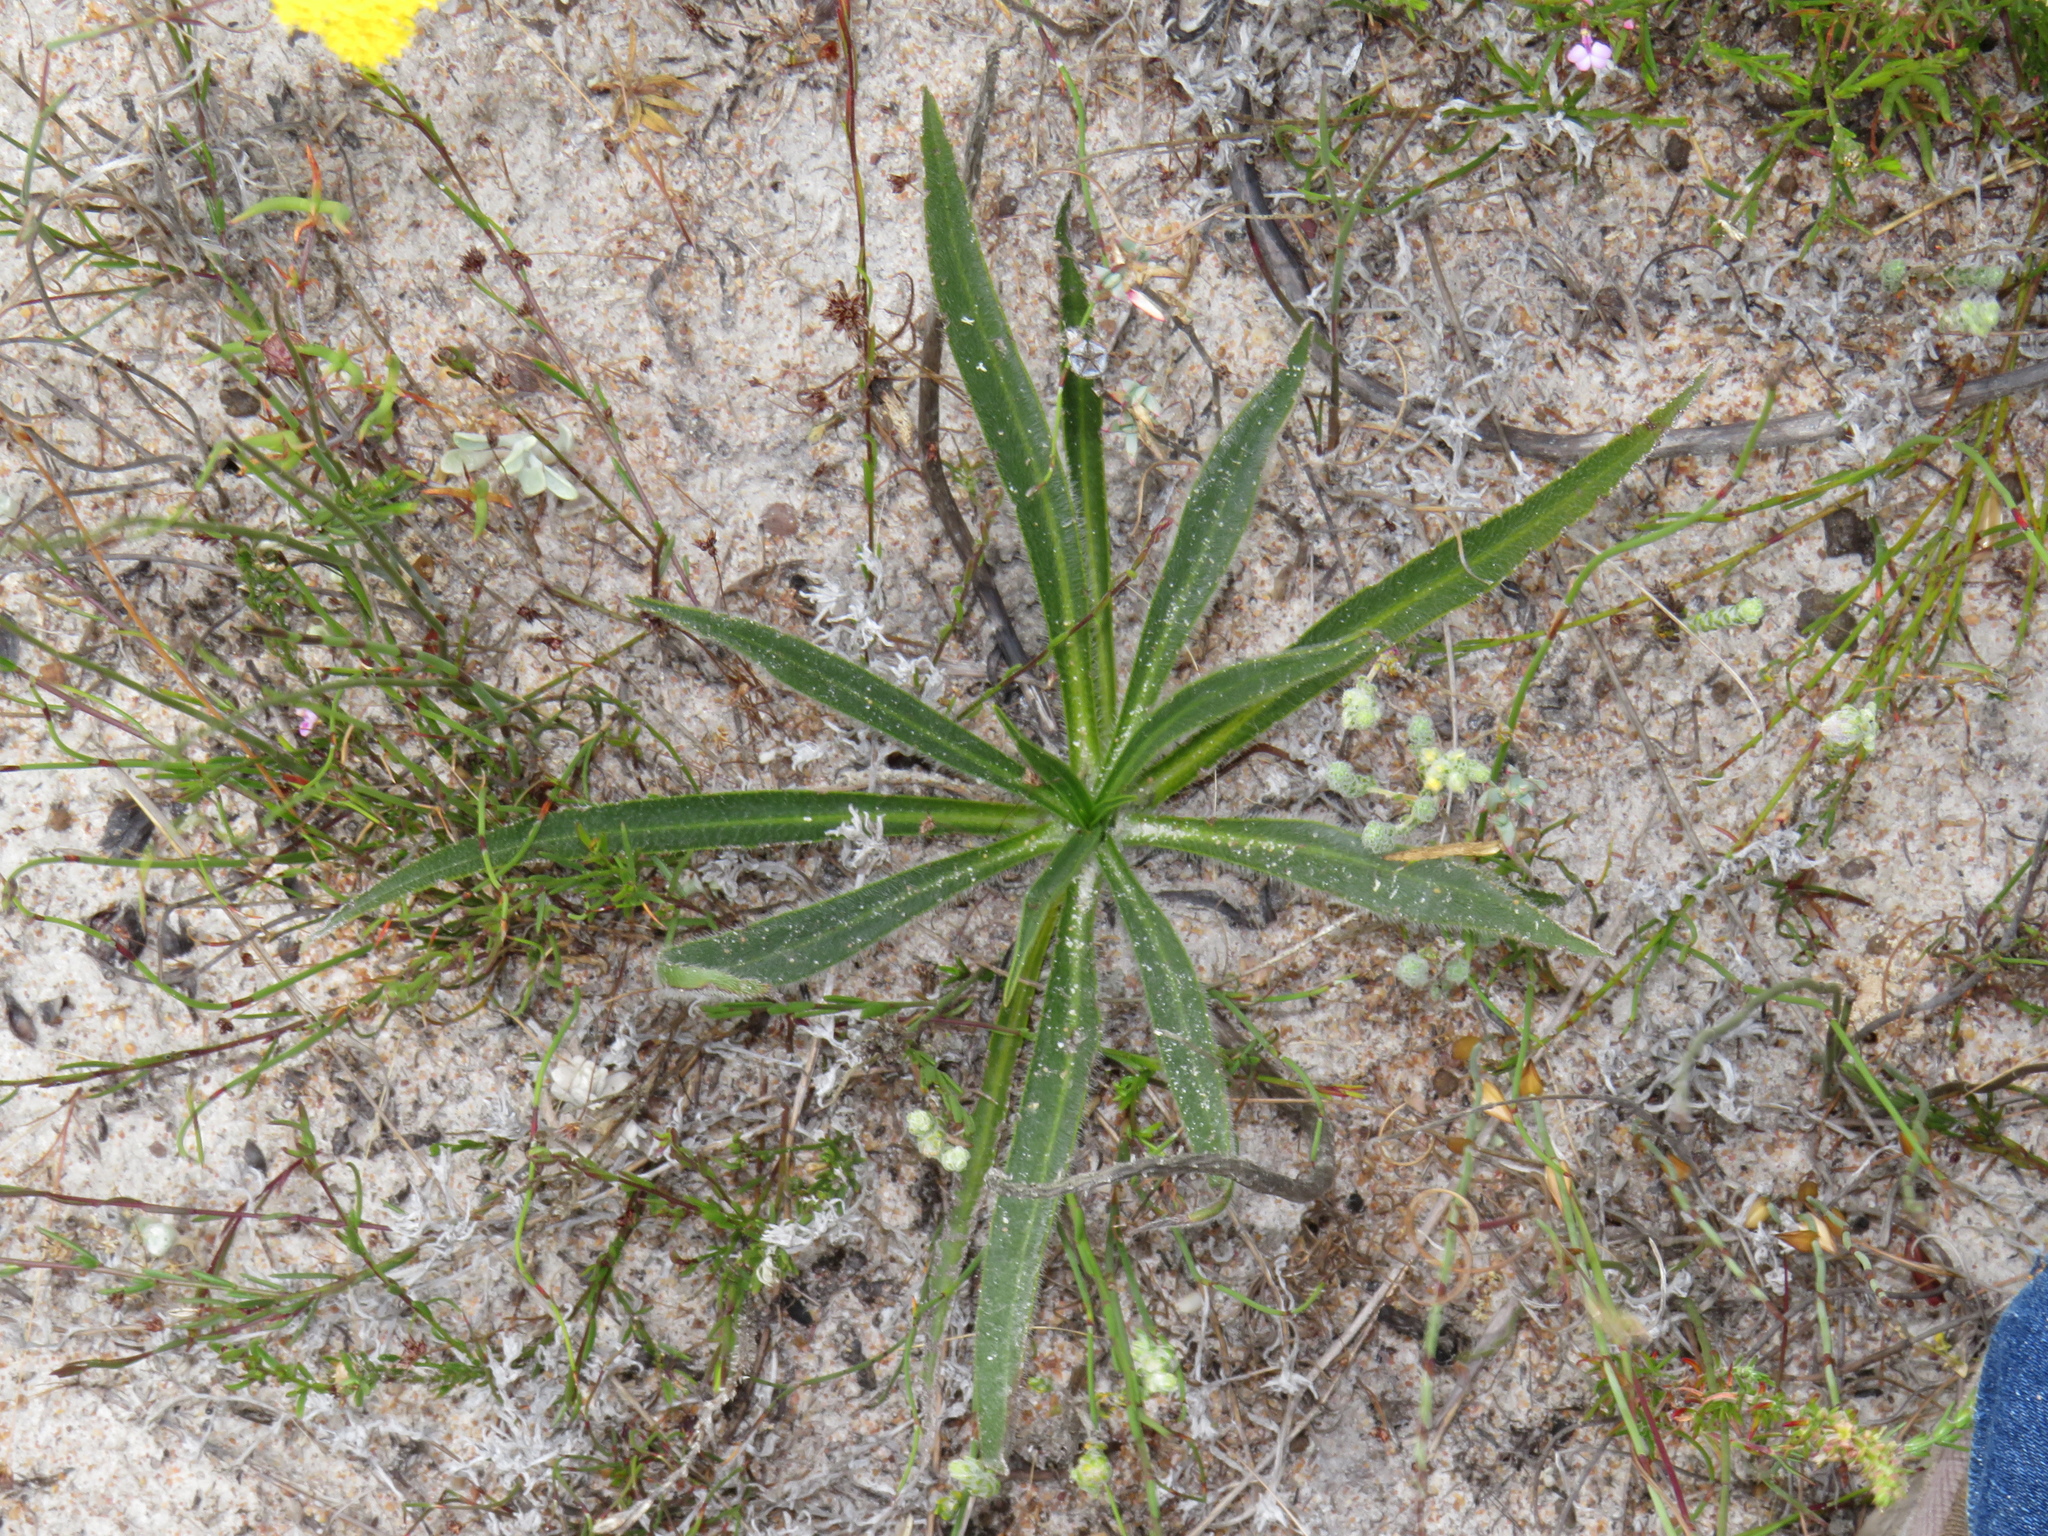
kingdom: Plantae
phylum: Tracheophyta
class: Magnoliopsida
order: Boraginales
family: Boraginaceae
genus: Lobostemon
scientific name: Lobostemon splendens
